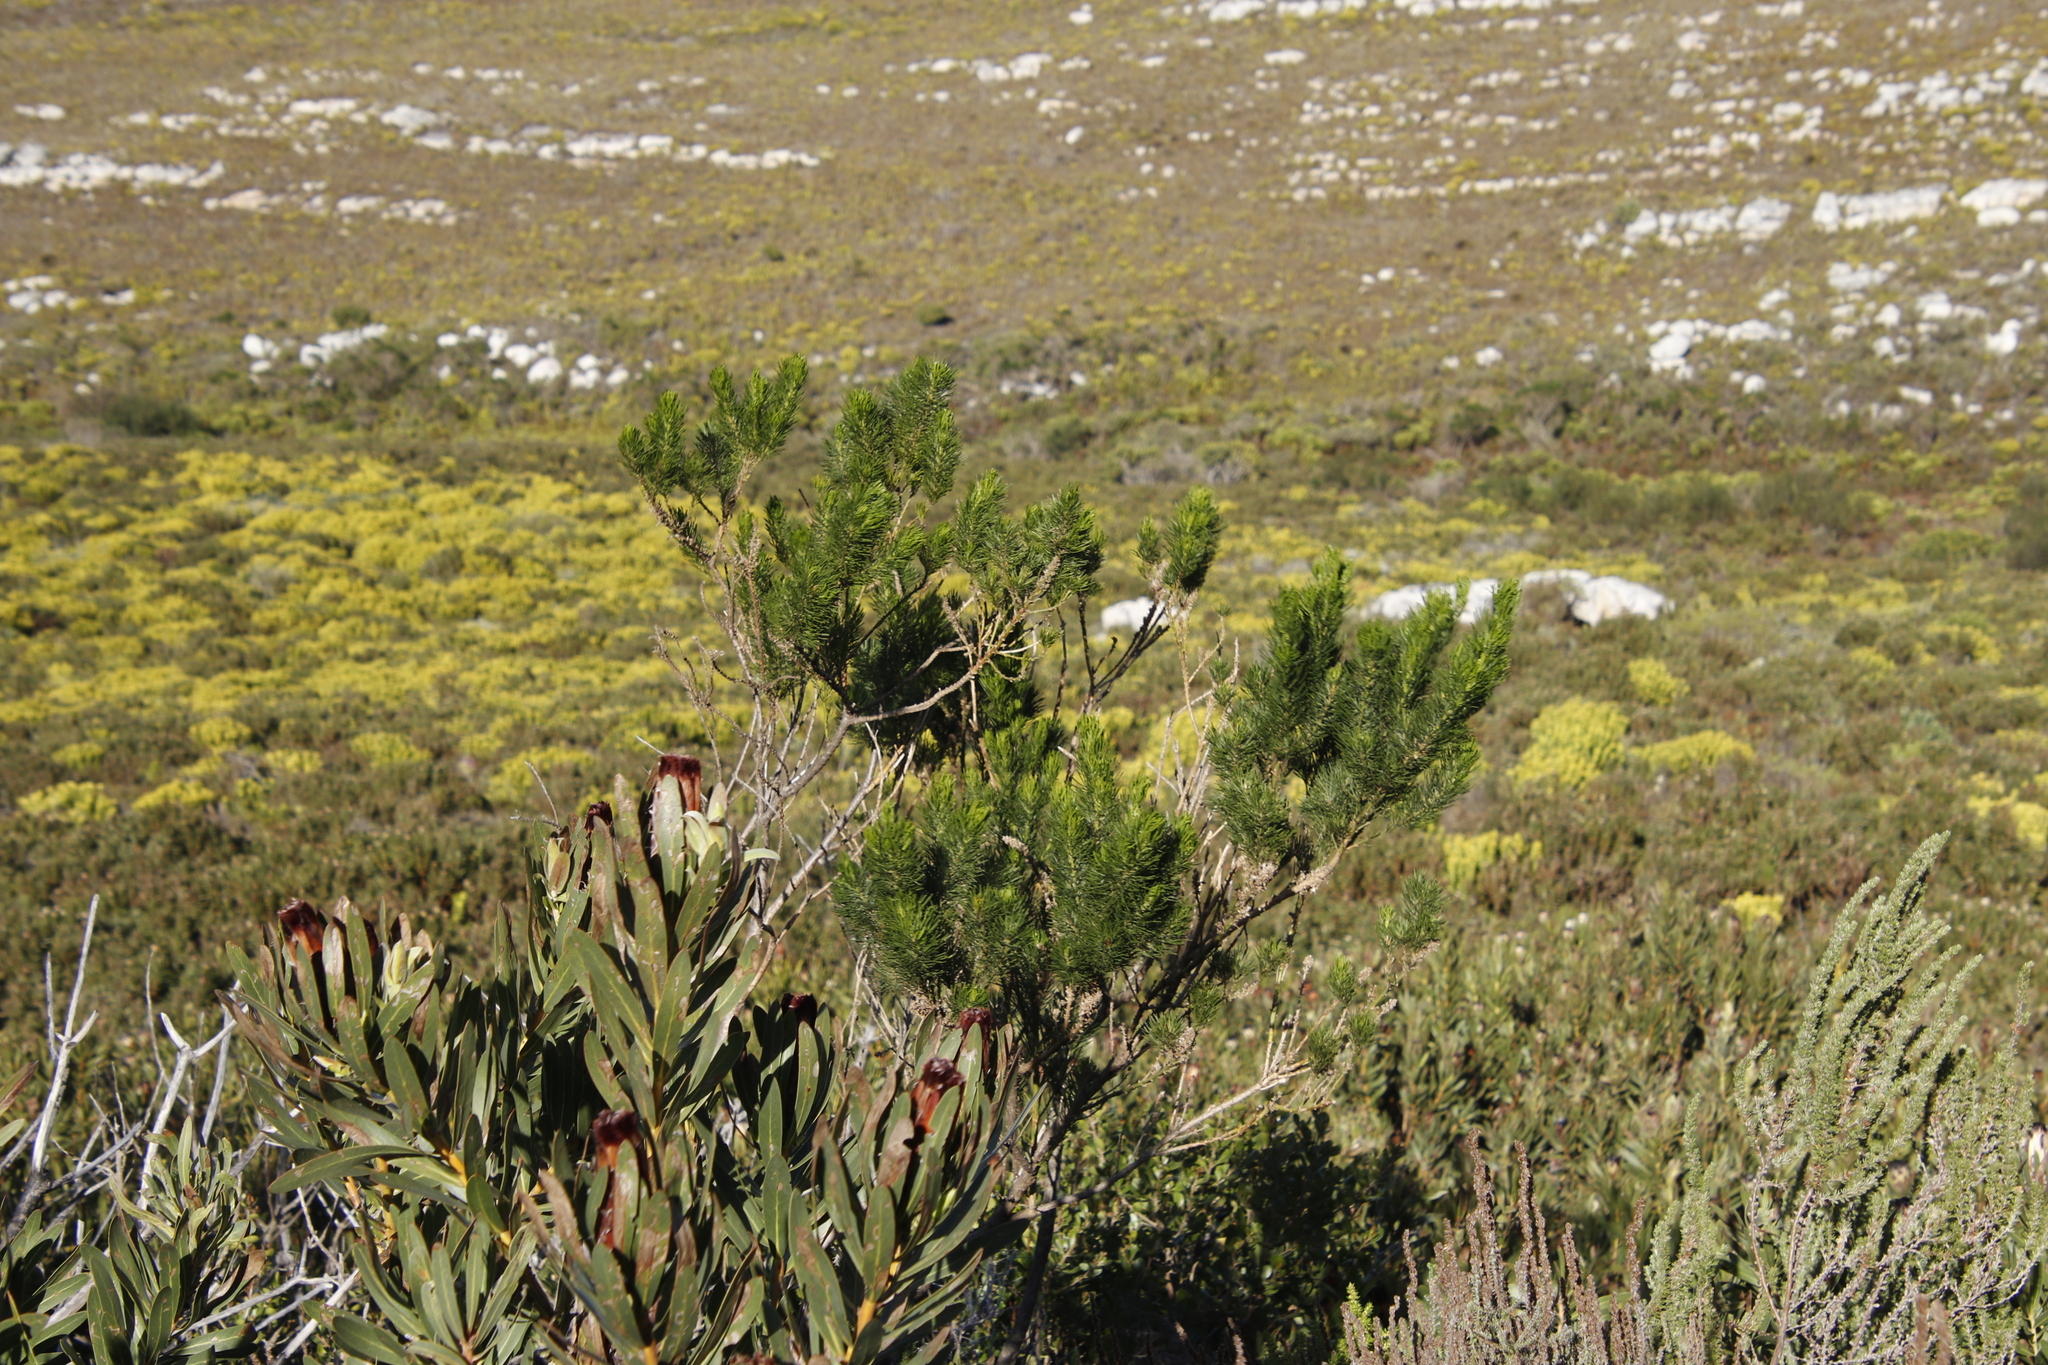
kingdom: Plantae
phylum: Tracheophyta
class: Magnoliopsida
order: Fabales
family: Fabaceae
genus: Psoralea
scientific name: Psoralea pinnata
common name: African scurfpea
